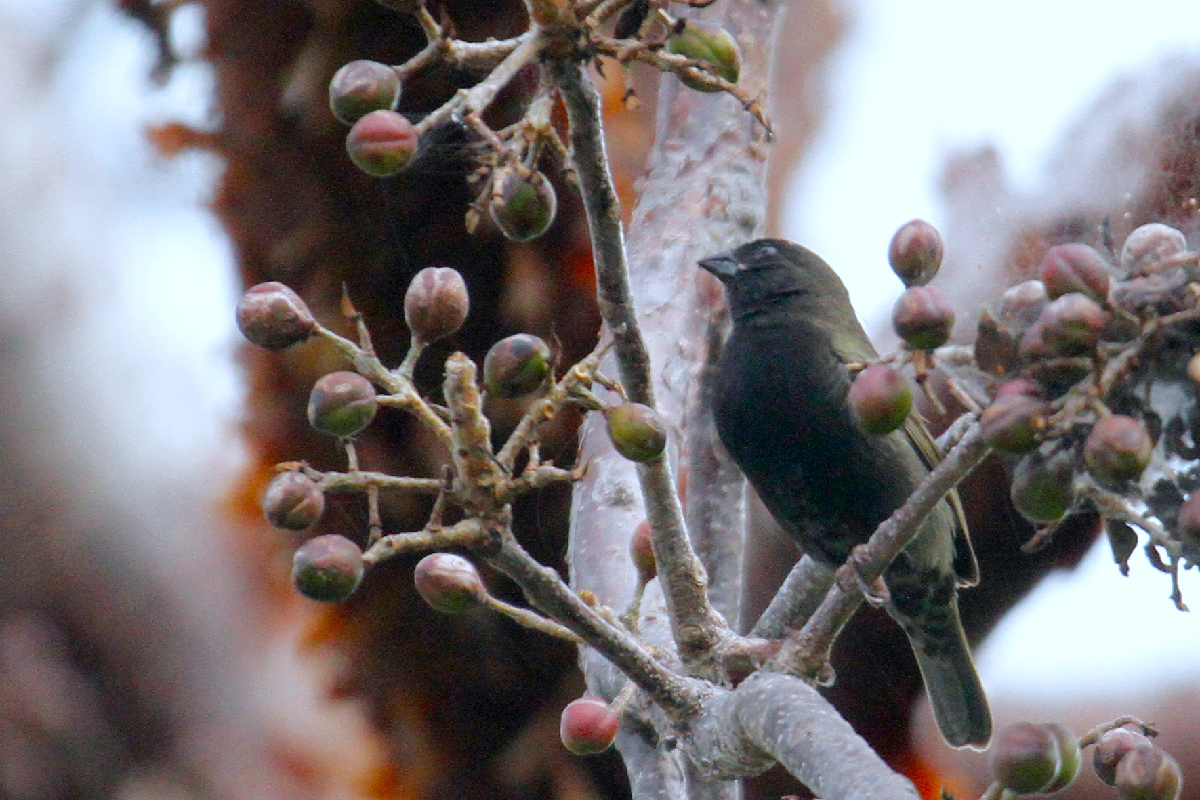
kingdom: Animalia
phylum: Chordata
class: Aves
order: Passeriformes
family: Thraupidae
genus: Melanospiza
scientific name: Melanospiza bicolor
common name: Black-faced grassquit
